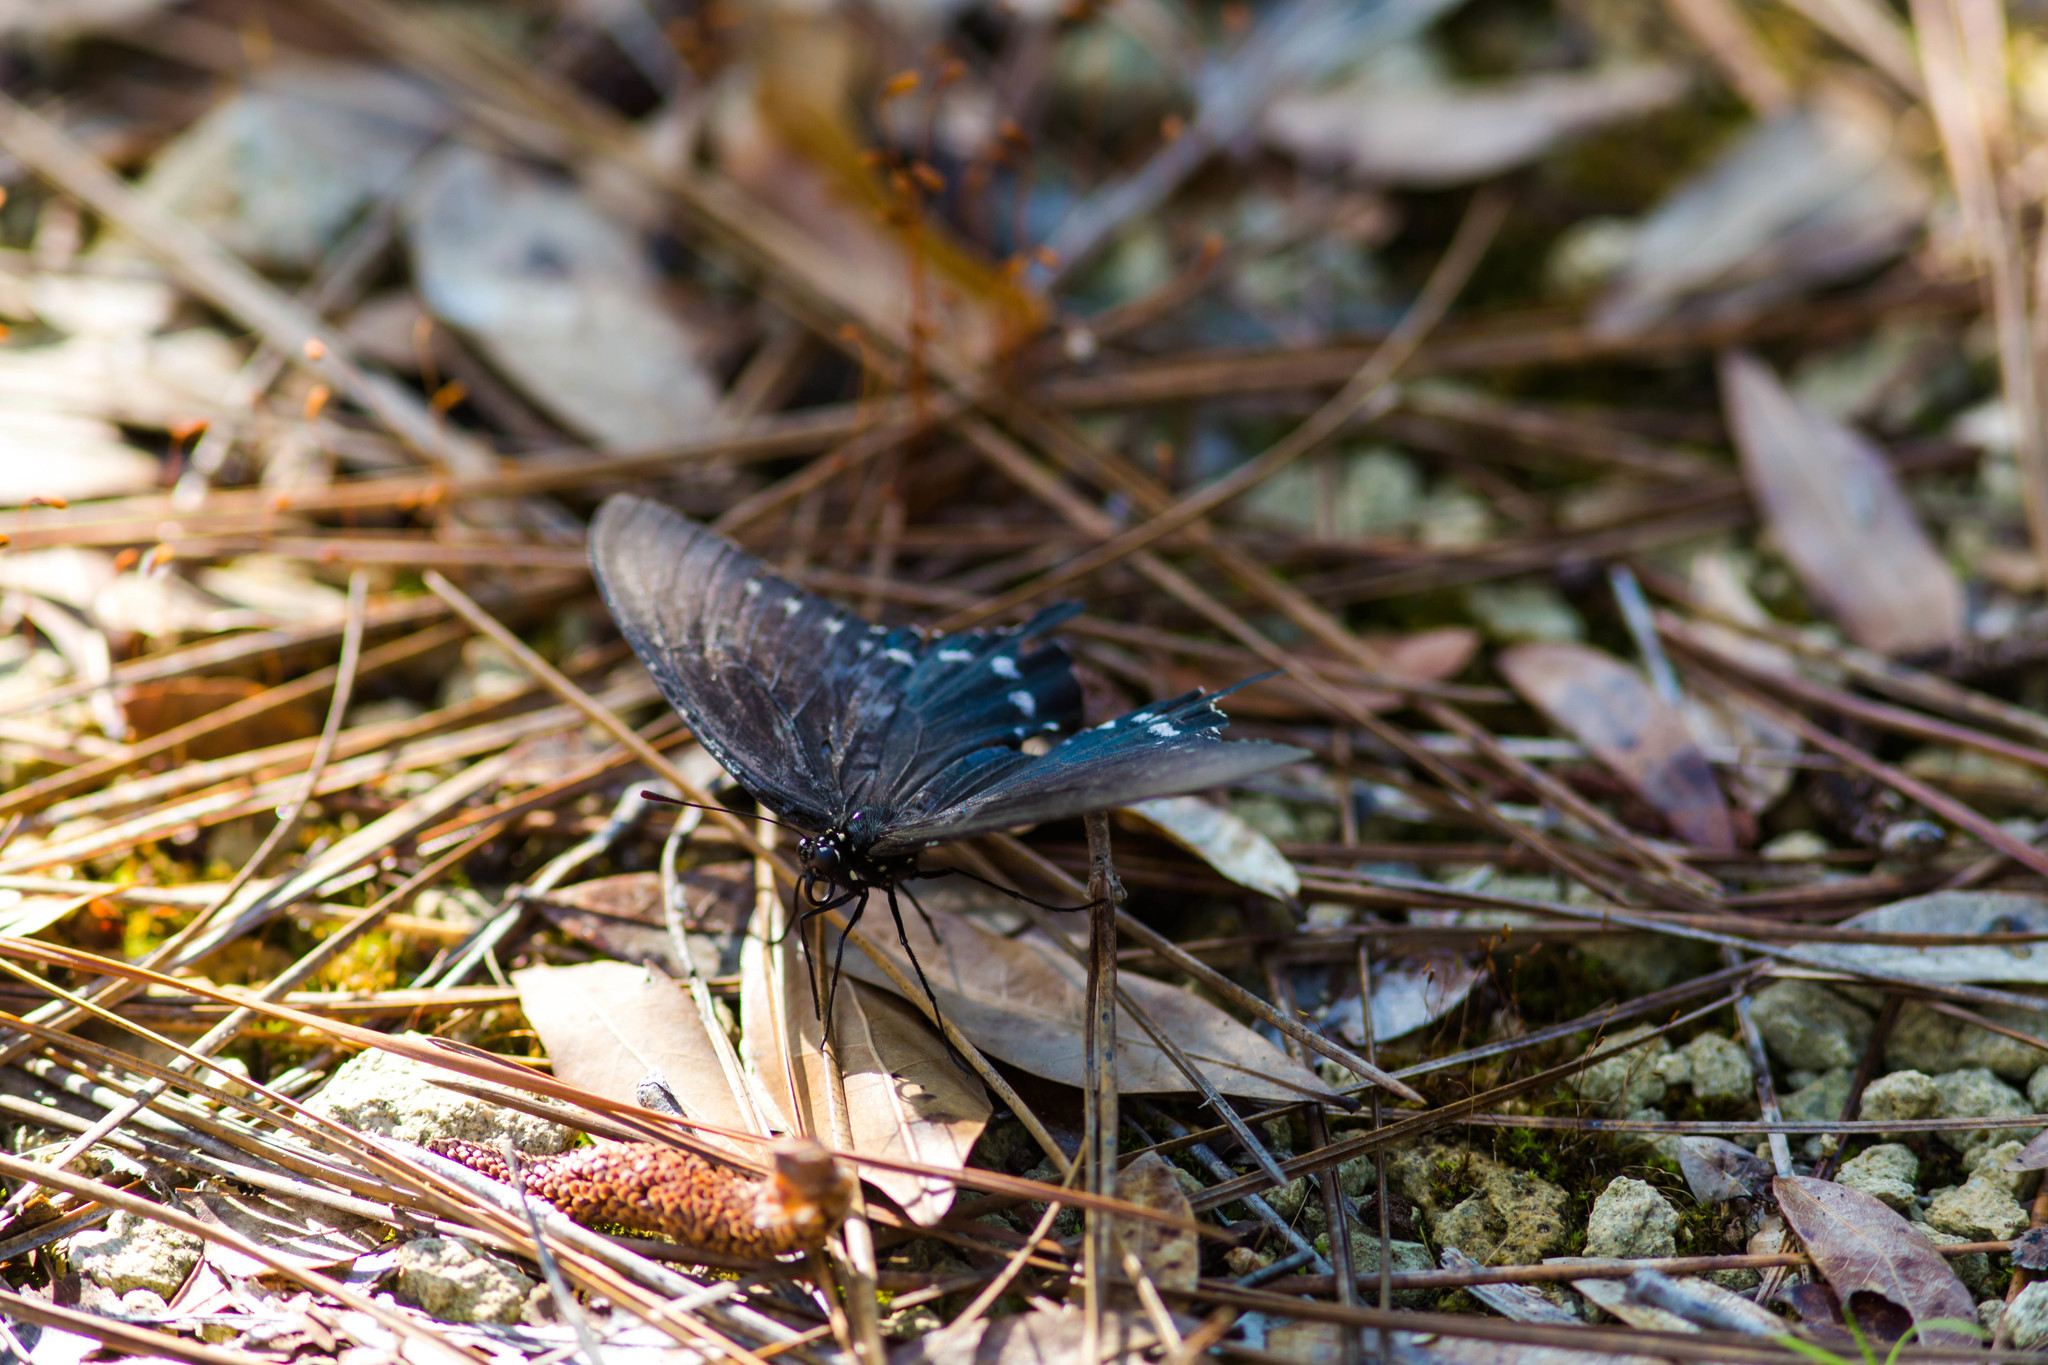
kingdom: Animalia
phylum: Arthropoda
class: Insecta
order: Lepidoptera
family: Papilionidae
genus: Battus
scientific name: Battus philenor
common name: Pipevine swallowtail
